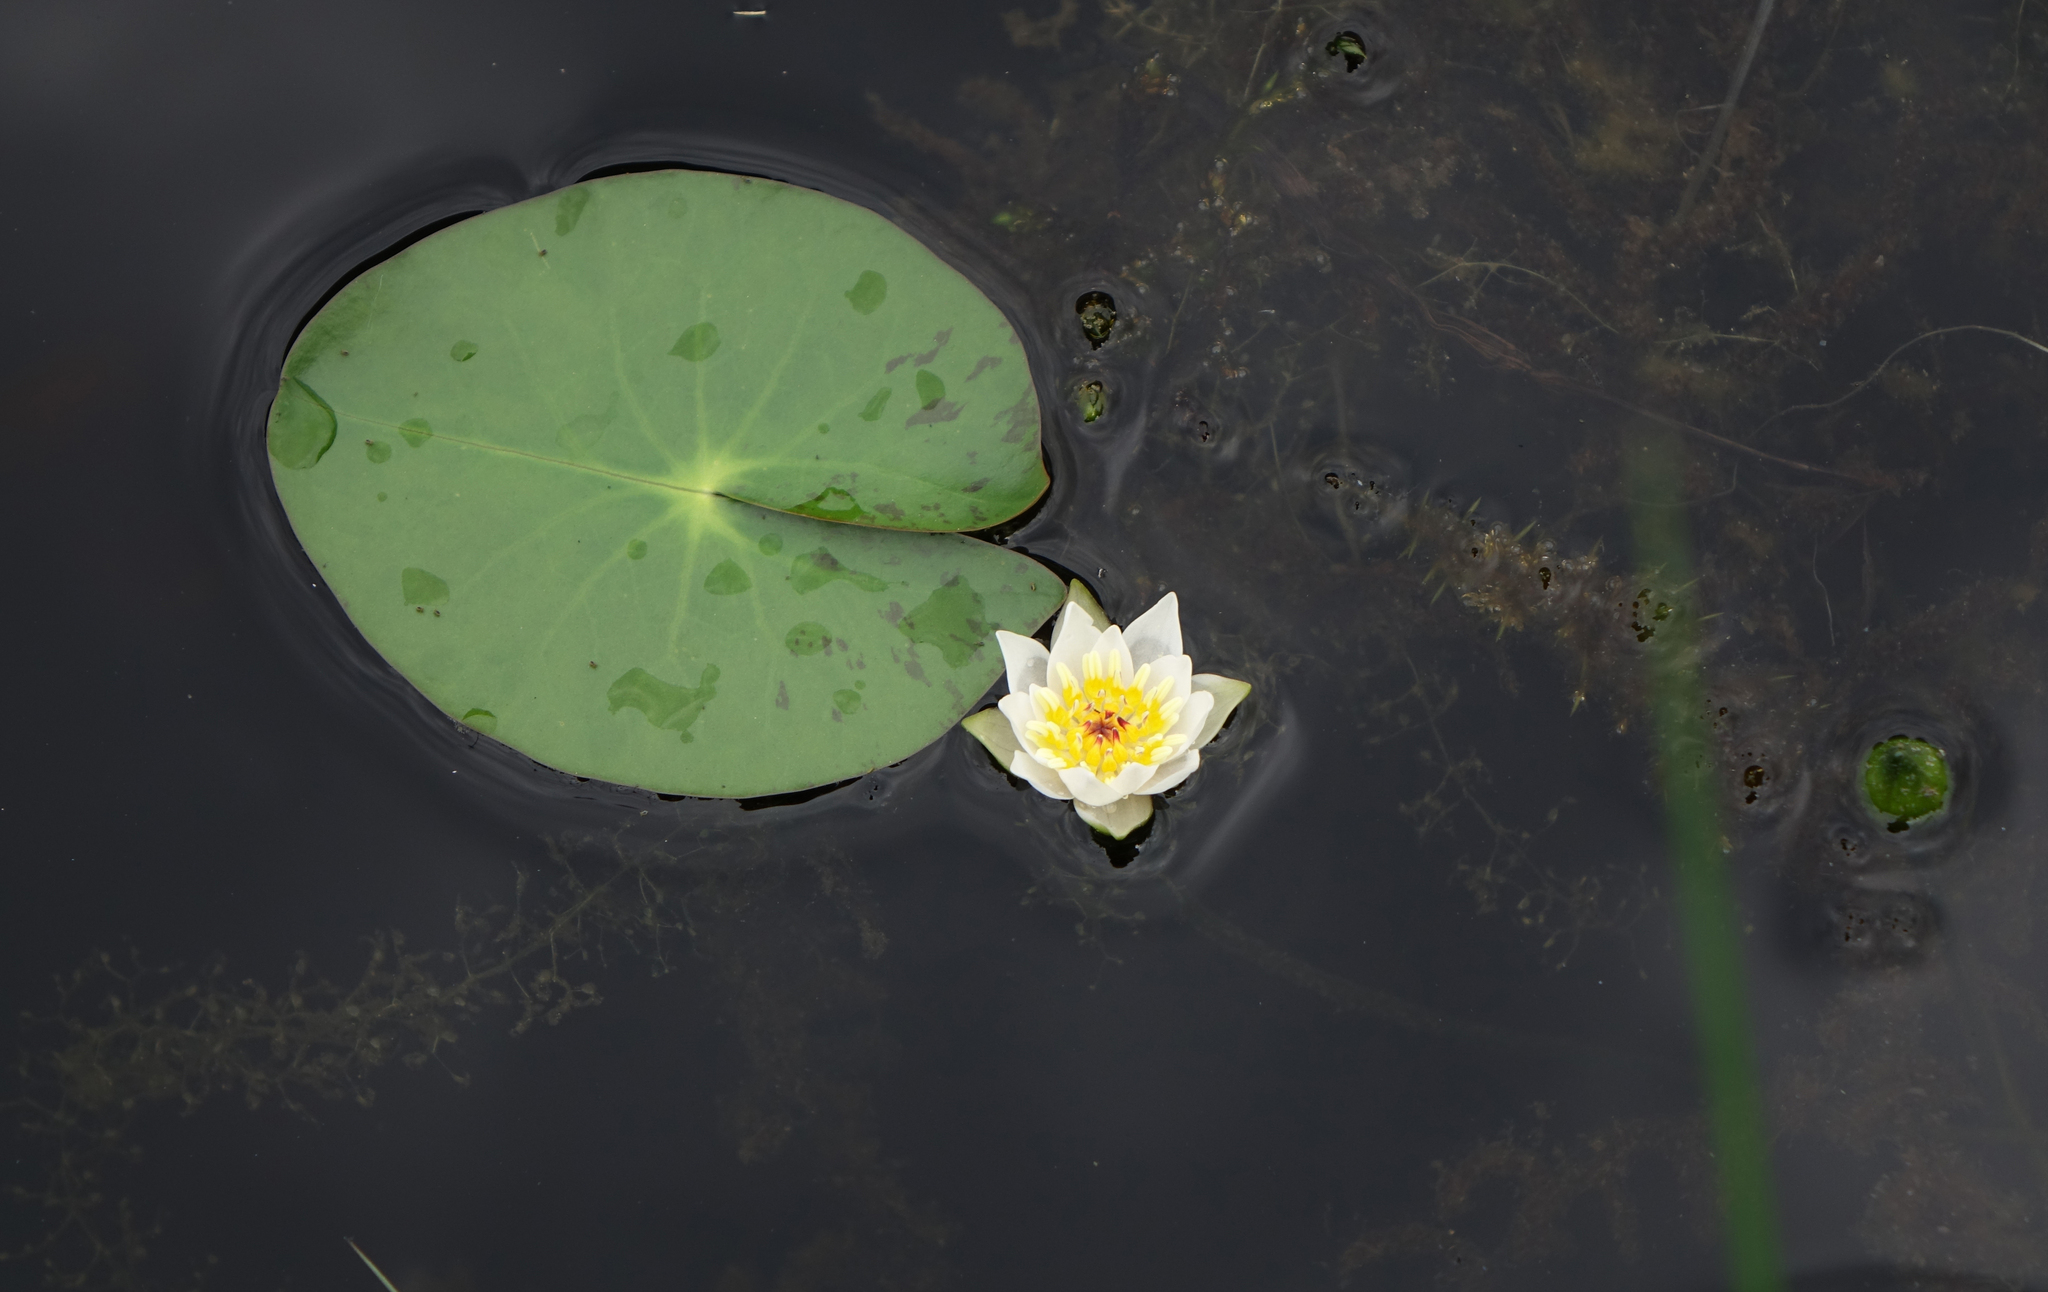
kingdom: Plantae
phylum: Tracheophyta
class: Magnoliopsida
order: Nymphaeales
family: Nymphaeaceae
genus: Nymphaea
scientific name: Nymphaea tetragona
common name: Pygmy water-lily
